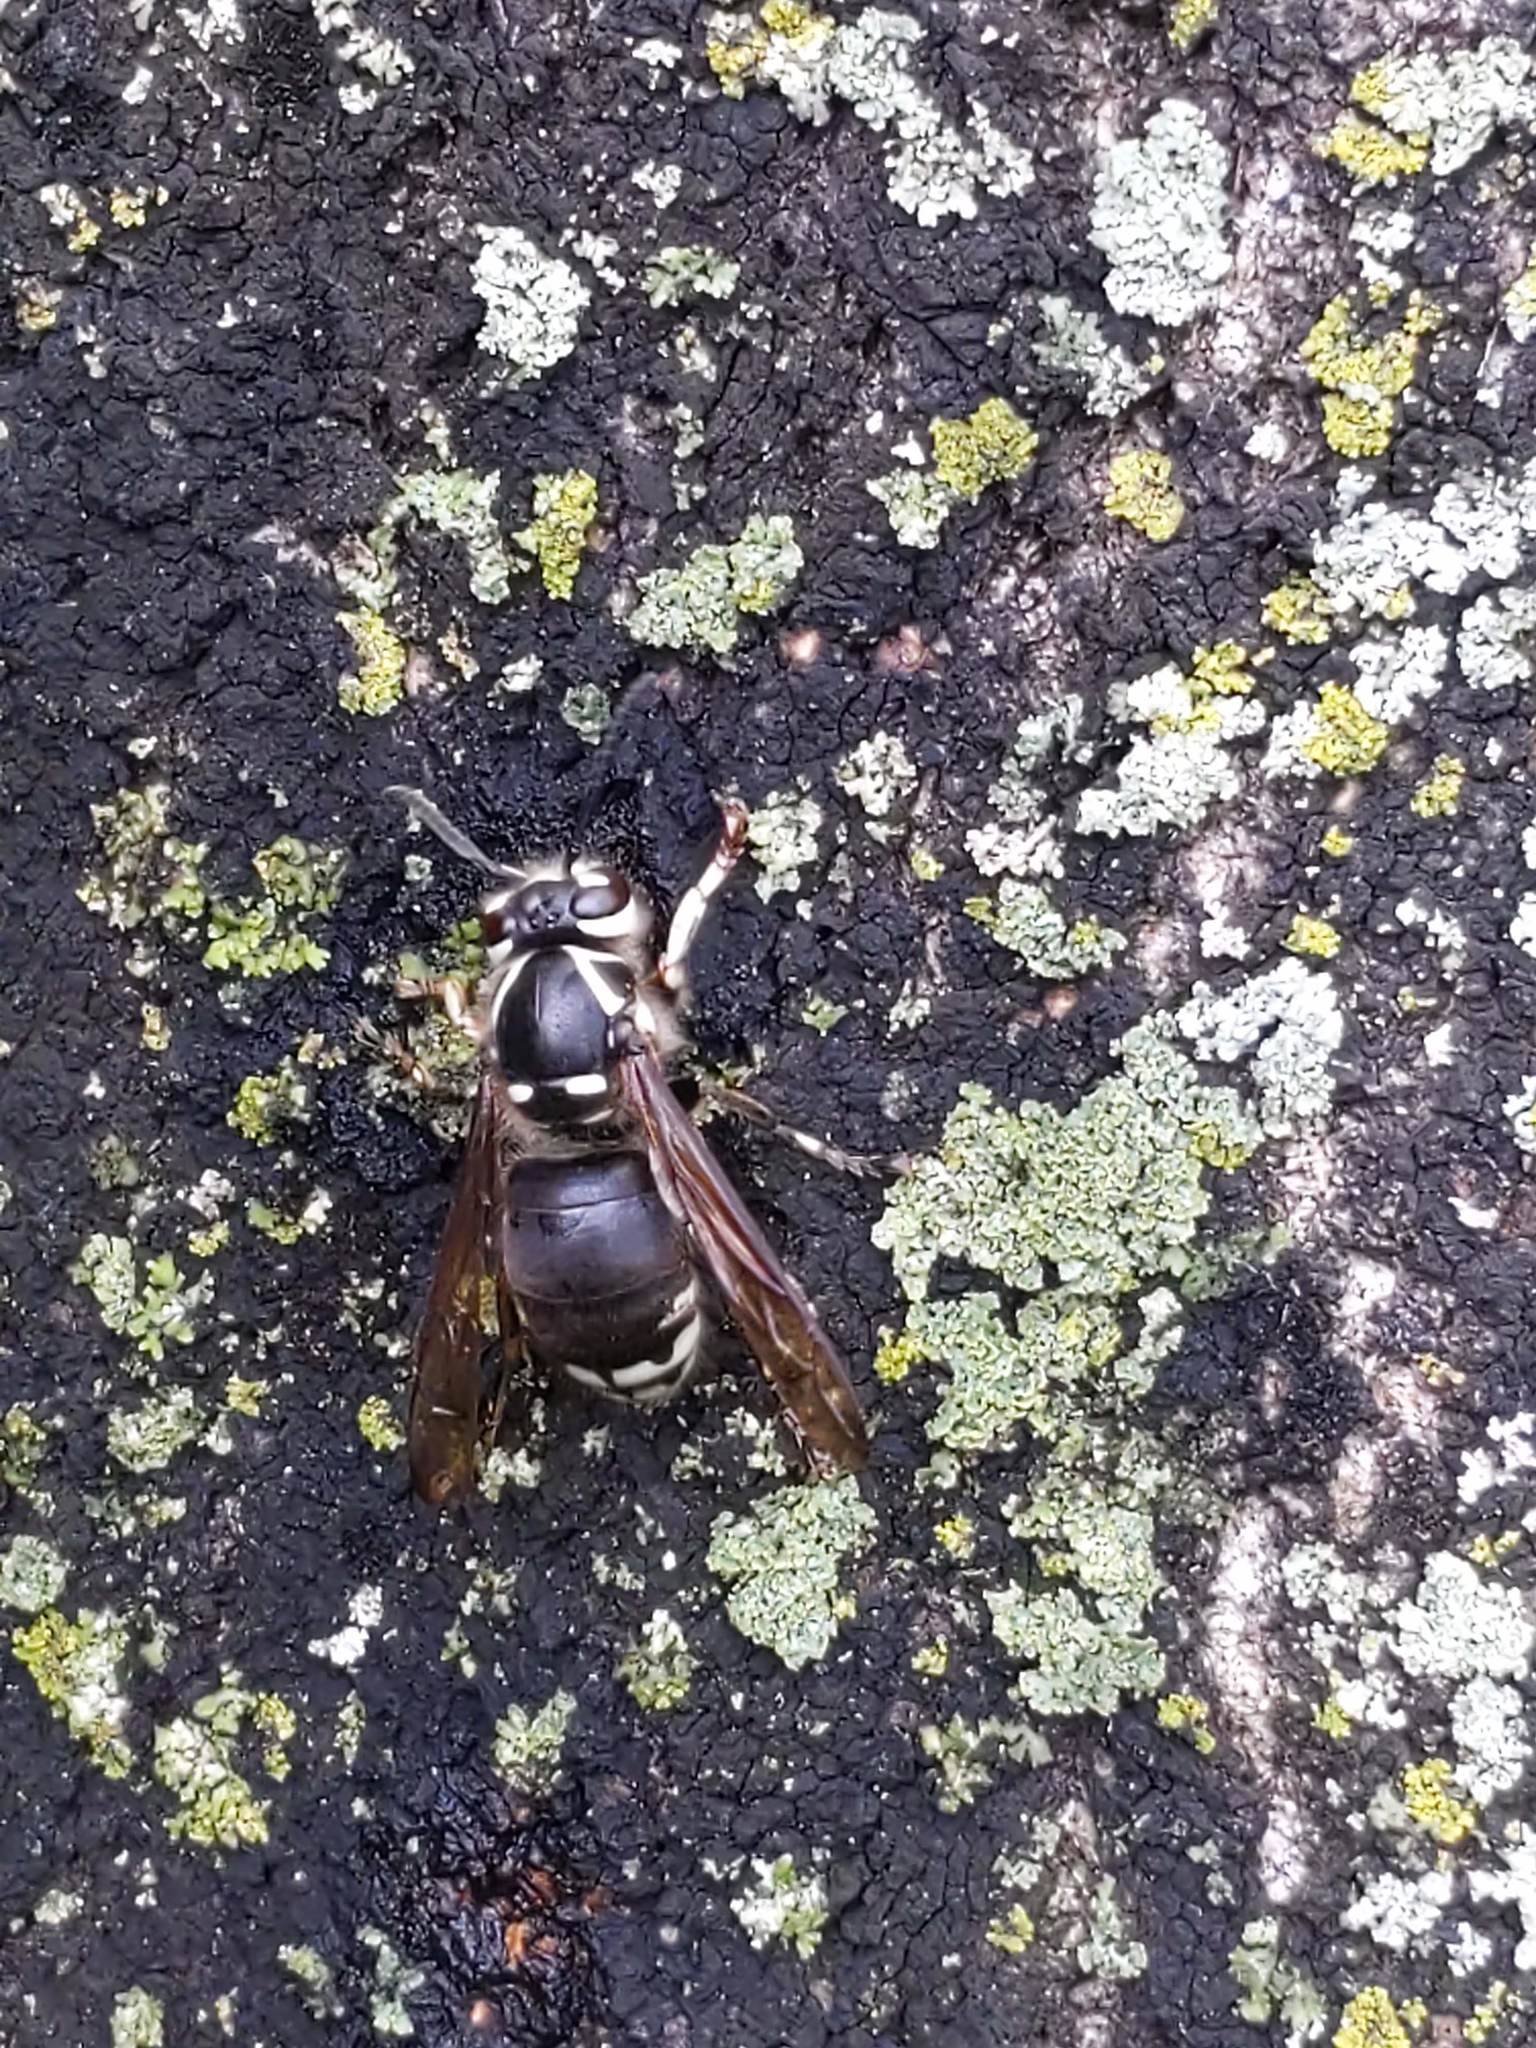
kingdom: Animalia
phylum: Arthropoda
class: Insecta
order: Hymenoptera
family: Vespidae
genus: Dolichovespula
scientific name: Dolichovespula maculata
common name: Bald-faced hornet
